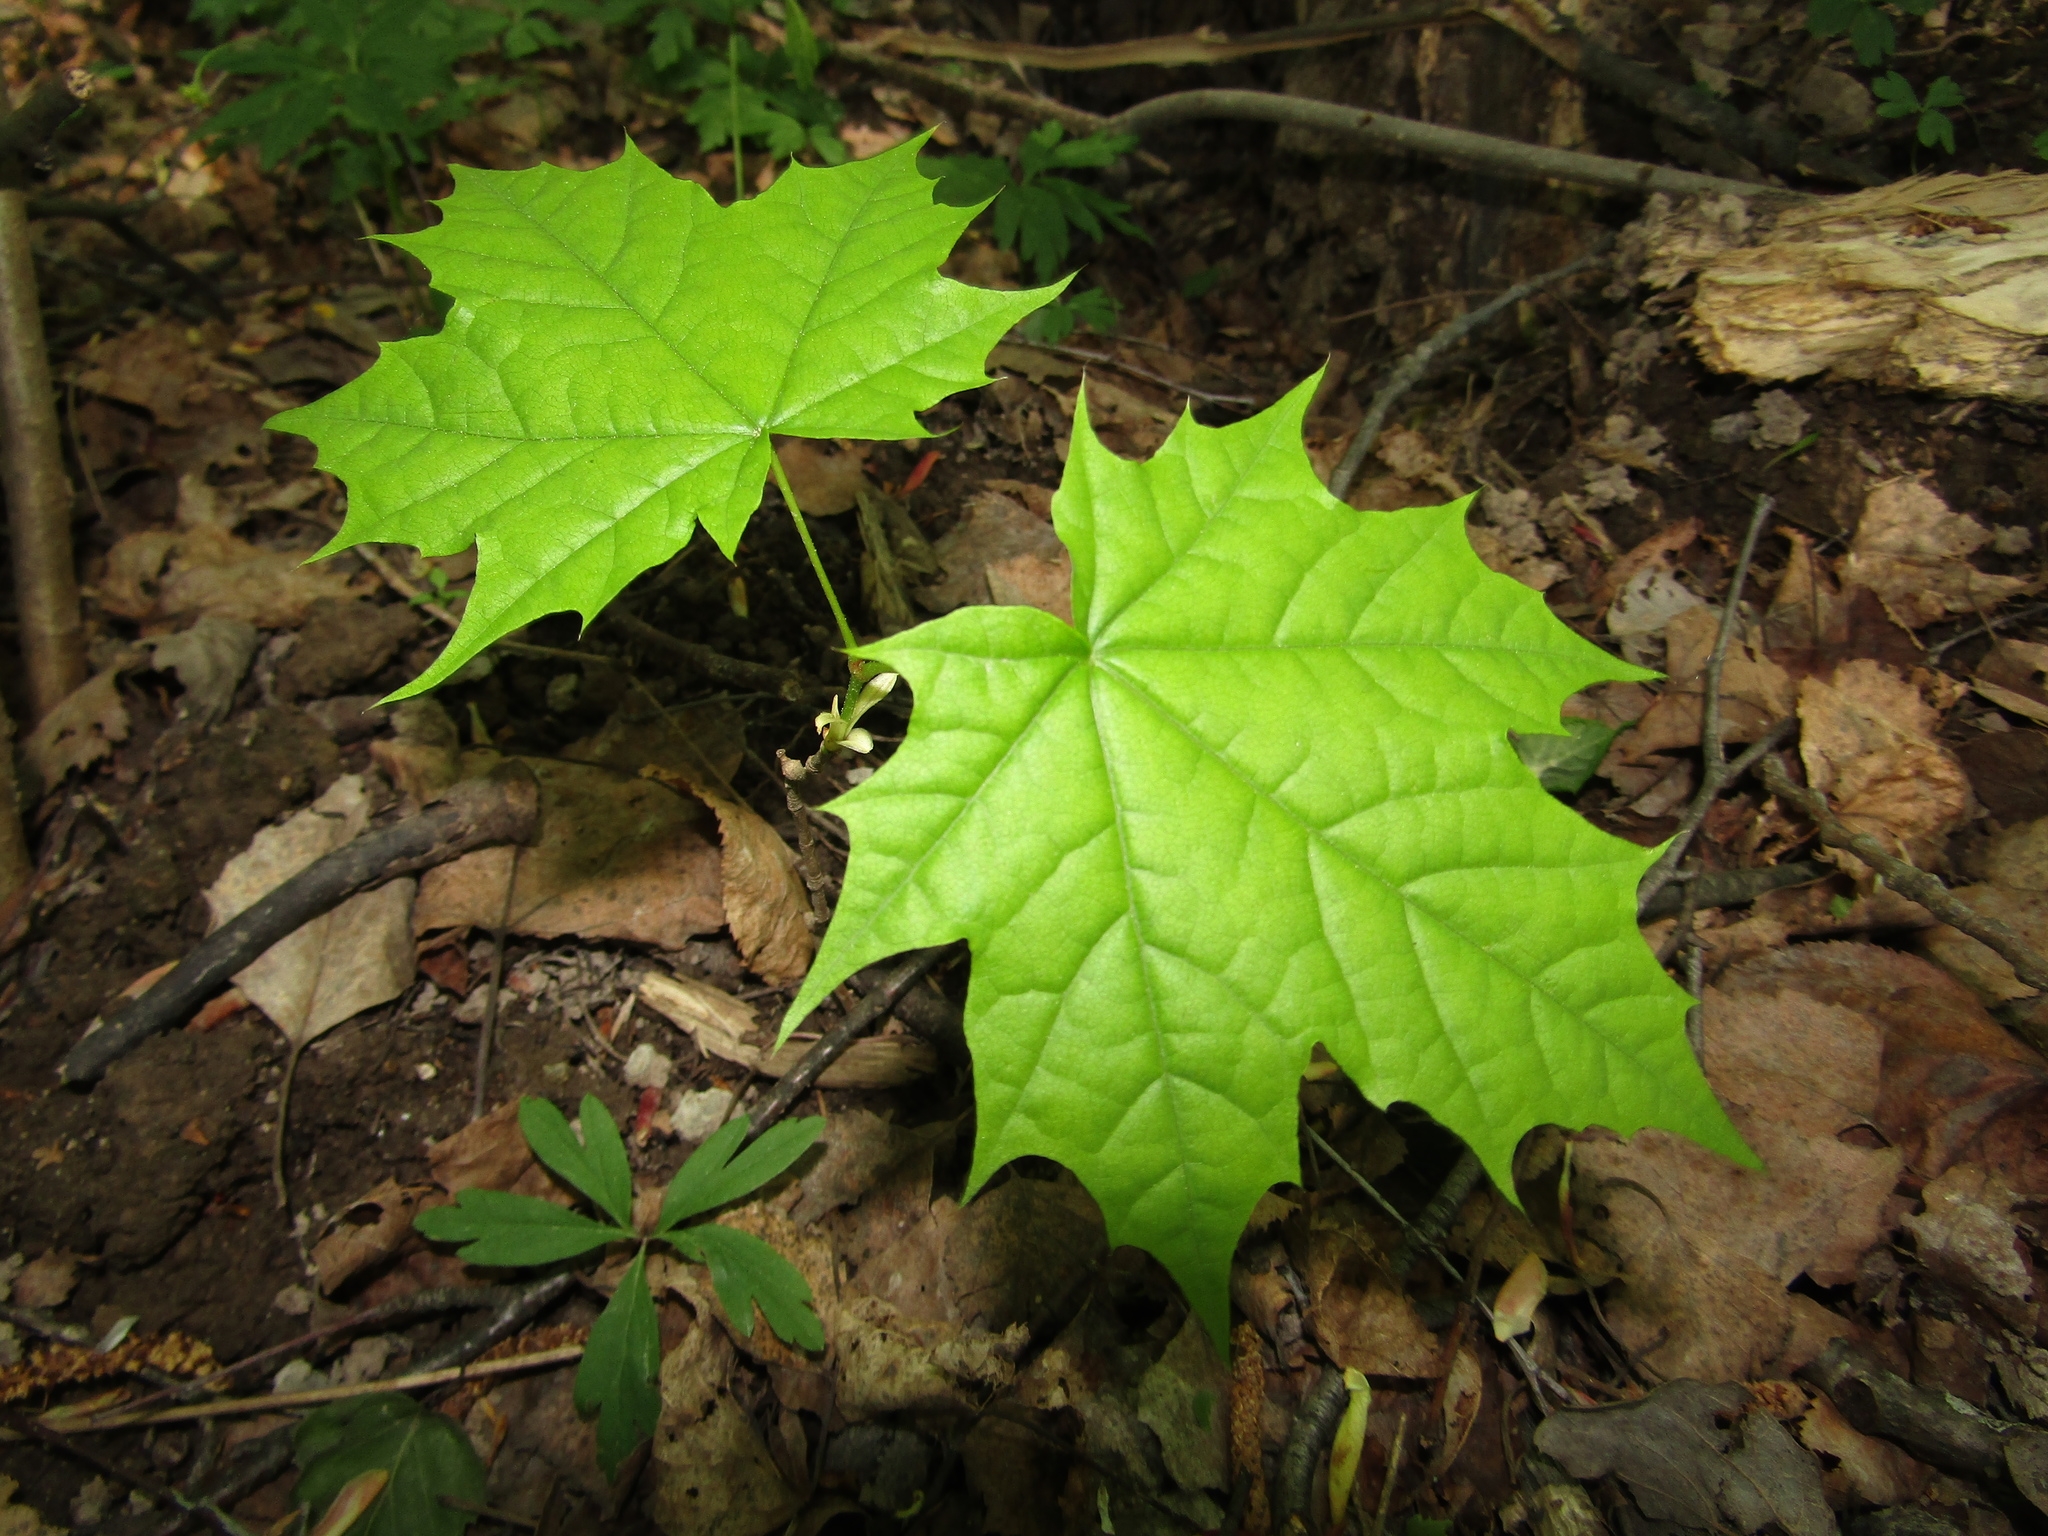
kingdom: Plantae
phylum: Tracheophyta
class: Magnoliopsida
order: Sapindales
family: Sapindaceae
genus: Acer
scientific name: Acer platanoides
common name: Norway maple
